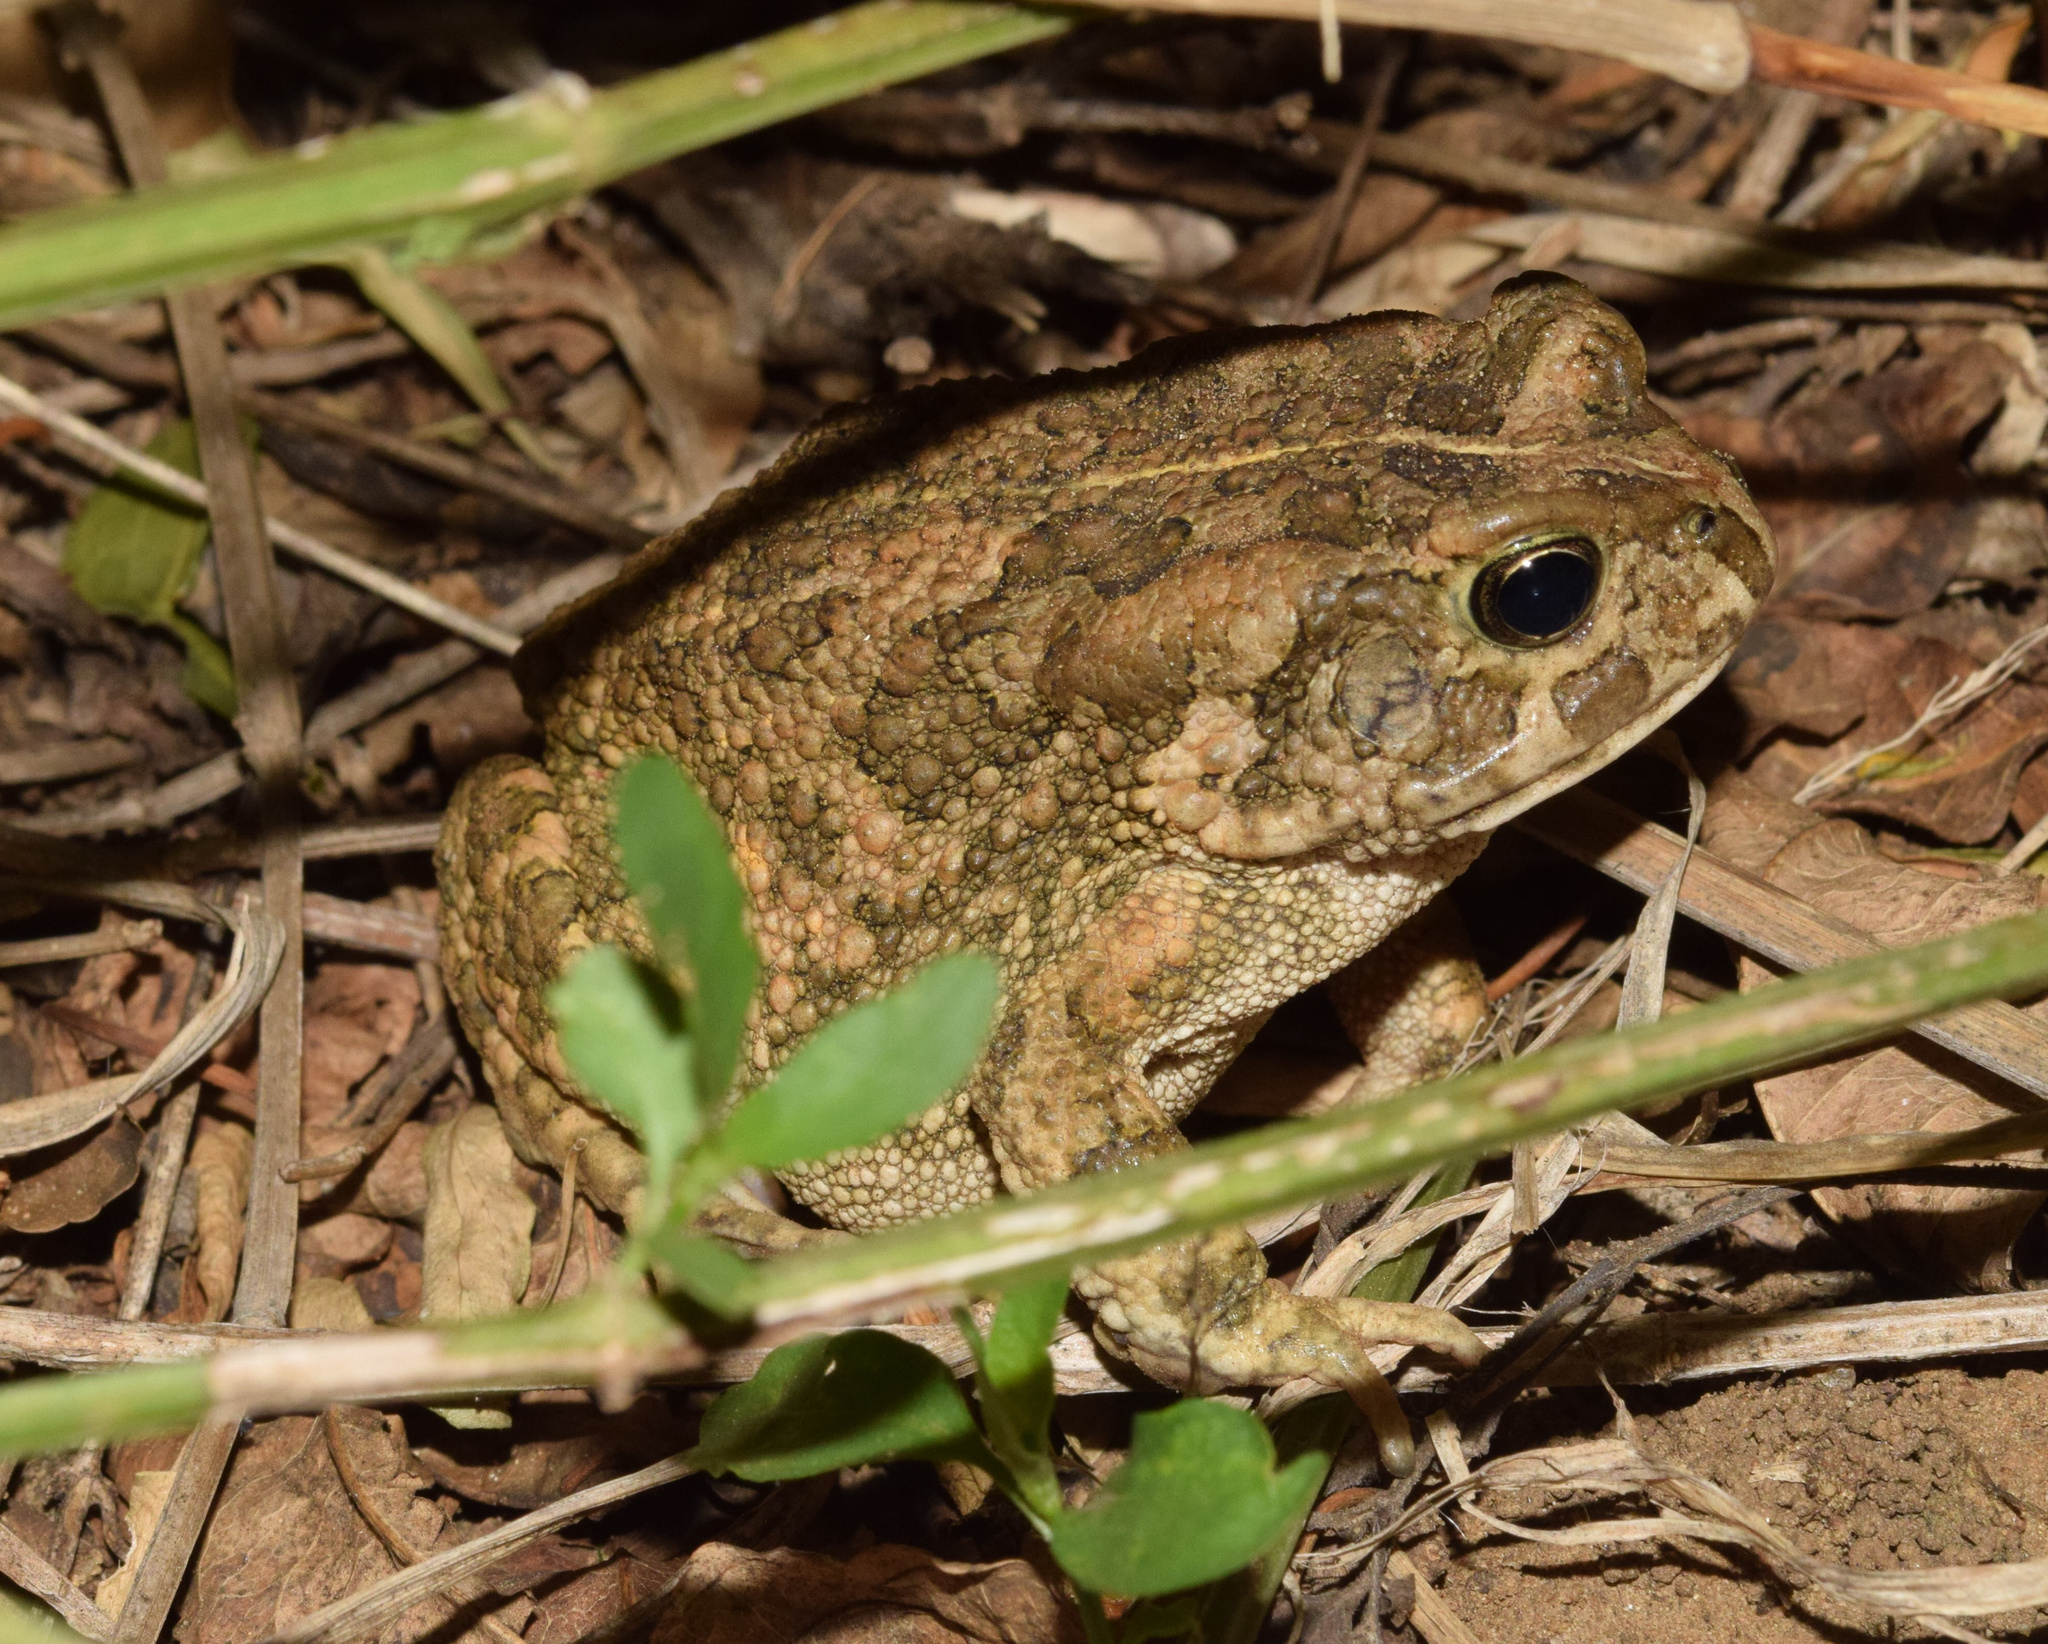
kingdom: Animalia
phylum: Chordata
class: Amphibia
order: Anura
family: Bufonidae
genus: Sclerophrys
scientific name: Sclerophrys gutturalis
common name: African common toad
